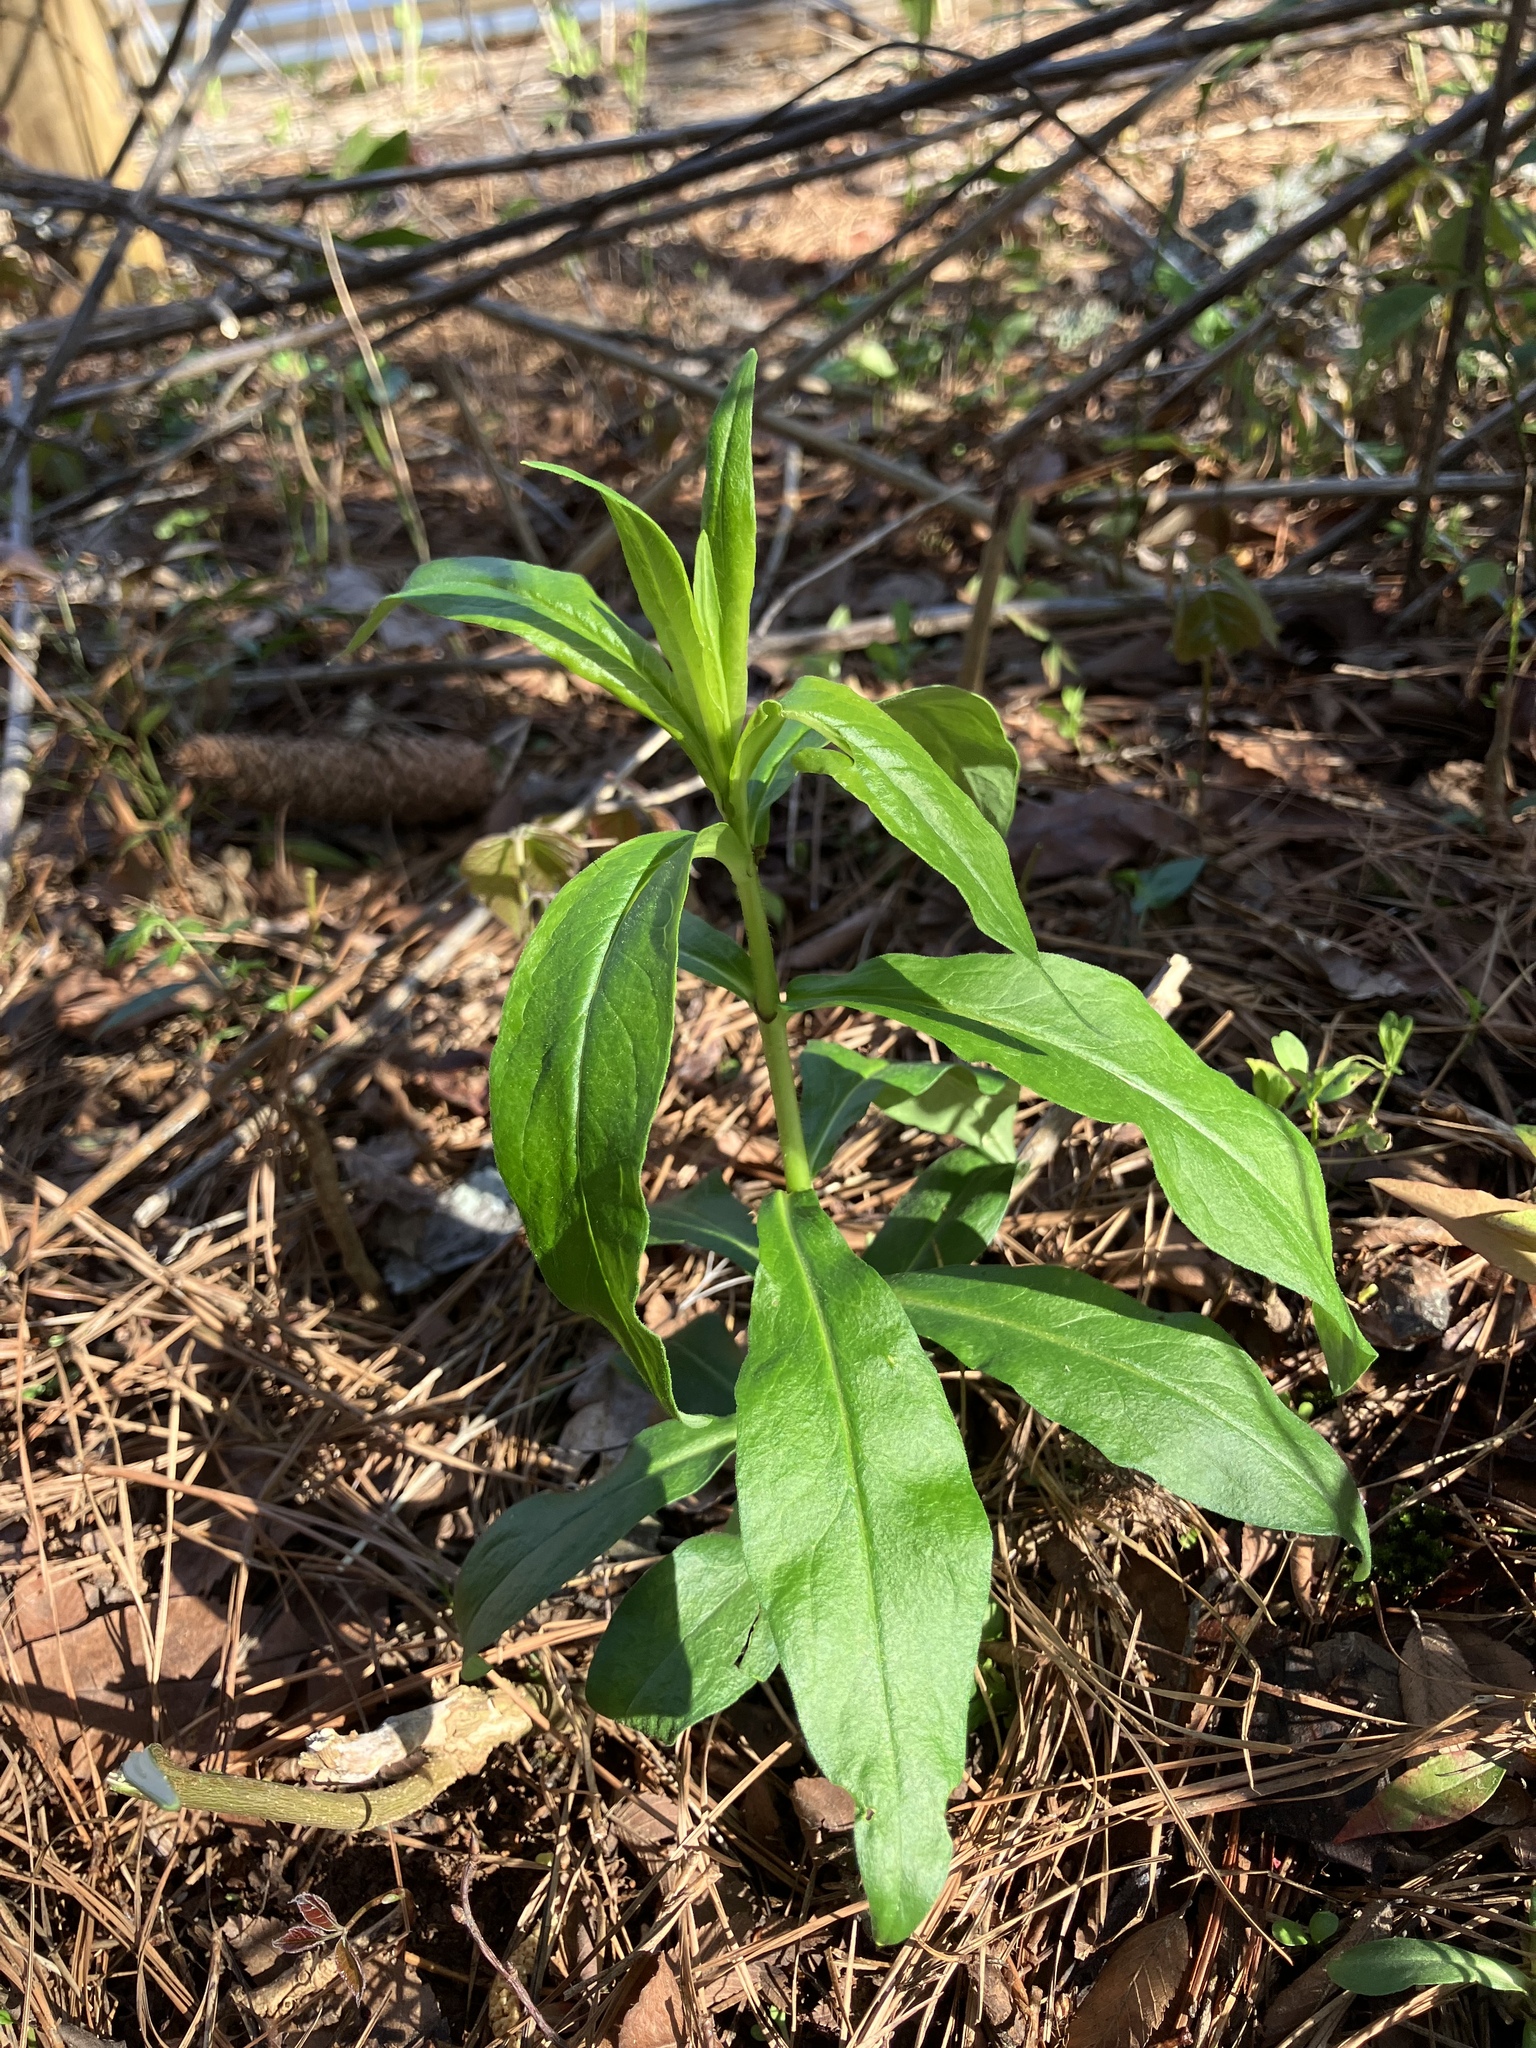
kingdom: Plantae
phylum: Tracheophyta
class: Magnoliopsida
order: Ericales
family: Polemoniaceae
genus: Phlox
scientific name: Phlox paniculata
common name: Fall phlox
